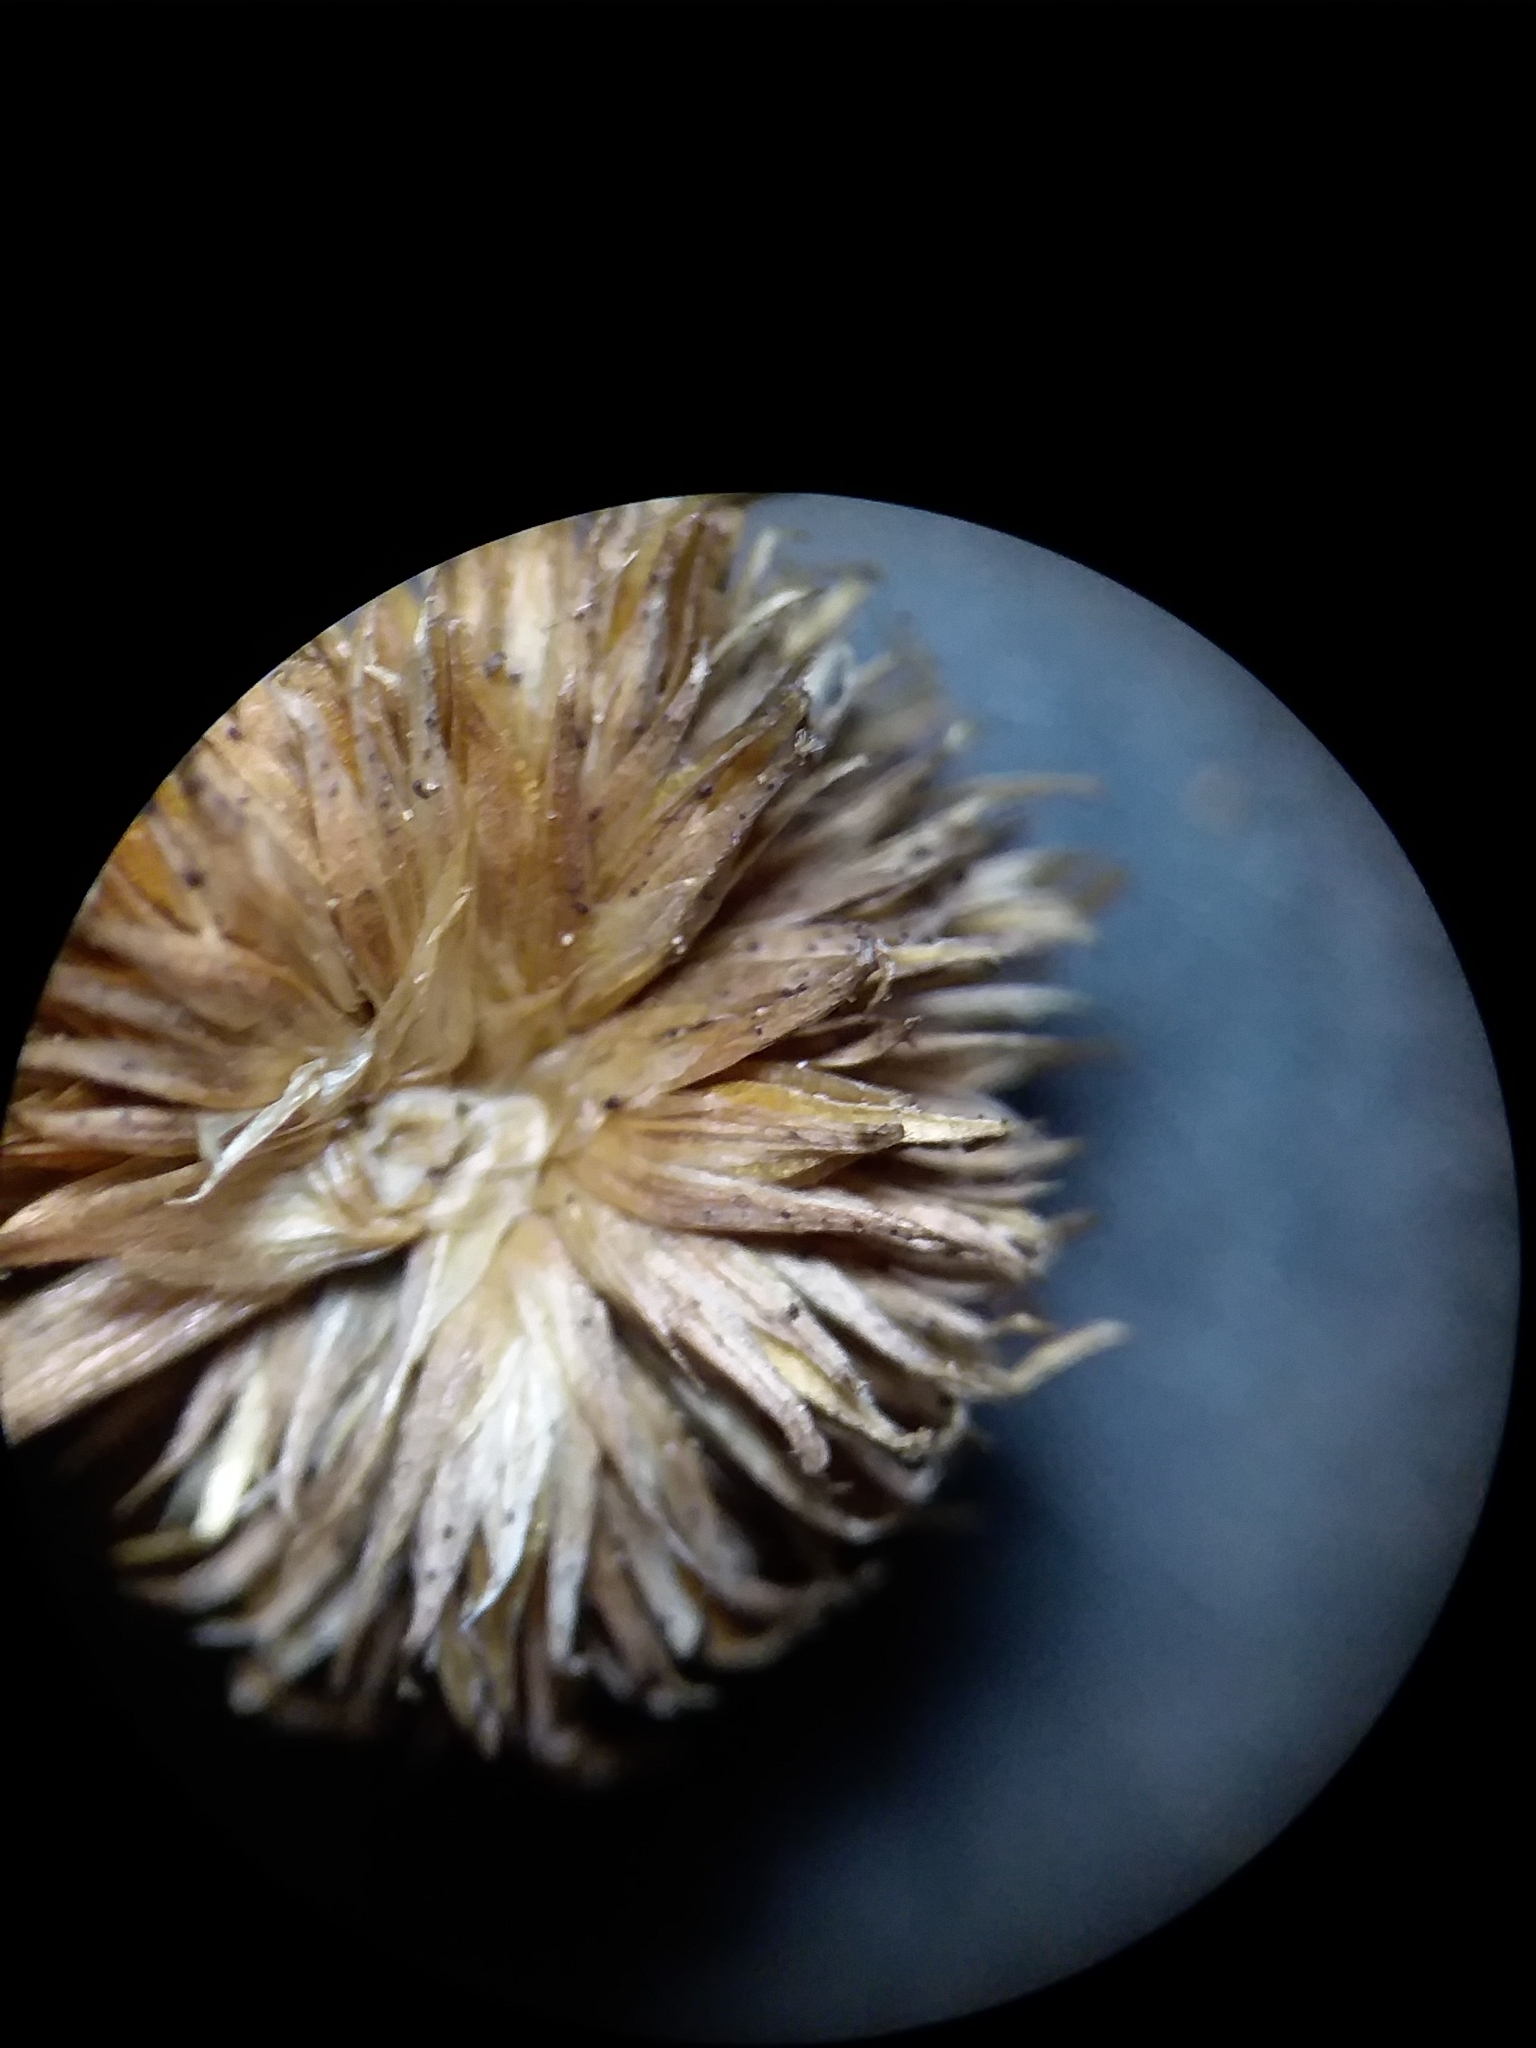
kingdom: Plantae
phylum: Tracheophyta
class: Liliopsida
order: Poales
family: Juncaceae
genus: Juncus
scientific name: Juncus scirpoides
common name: Needlepod rush
